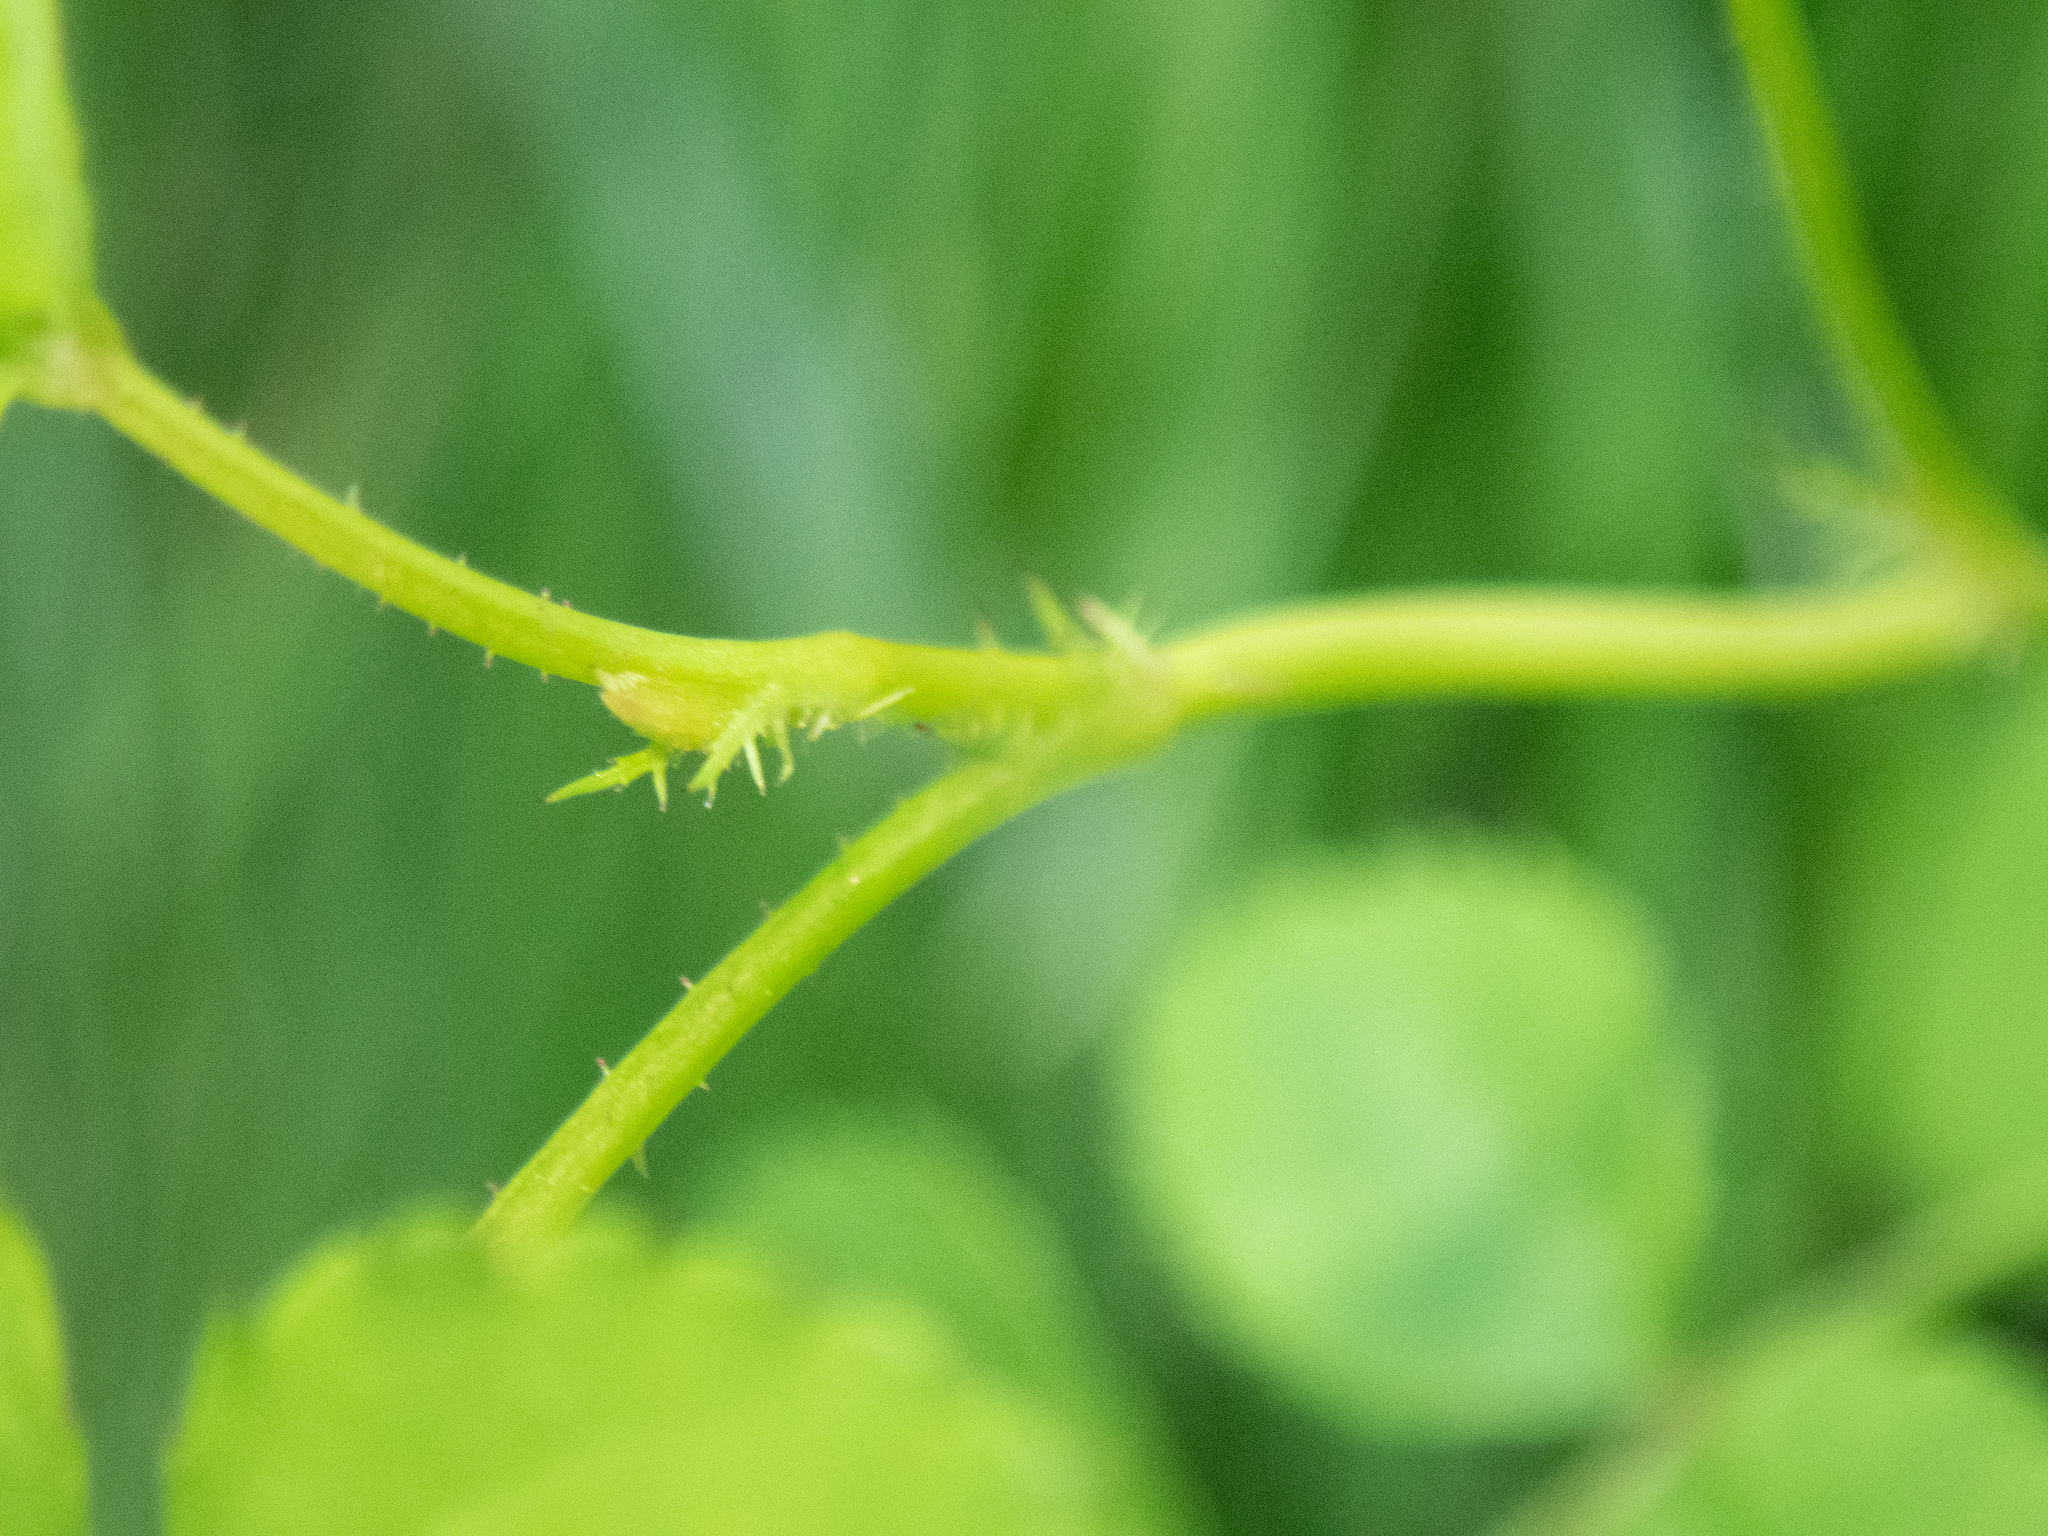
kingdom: Plantae
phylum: Tracheophyta
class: Magnoliopsida
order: Rosales
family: Rosaceae
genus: Rosa
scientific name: Rosa multiflora
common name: Multiflora rose
